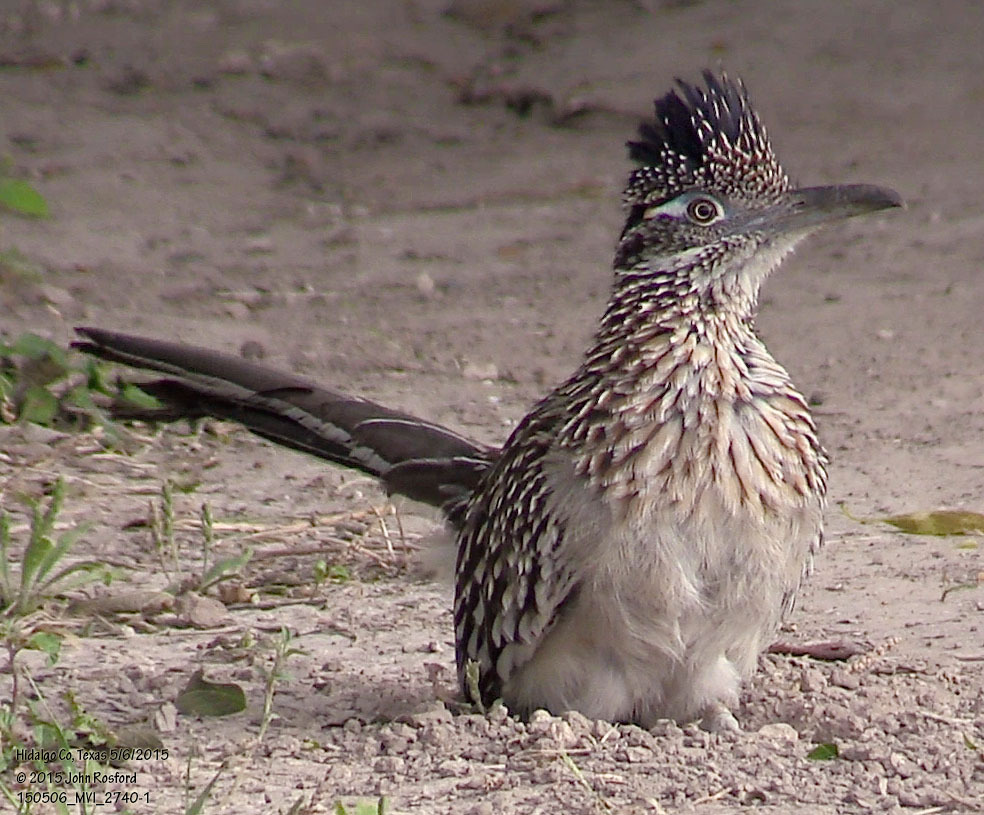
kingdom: Animalia
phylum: Chordata
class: Aves
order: Cuculiformes
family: Cuculidae
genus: Geococcyx
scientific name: Geococcyx californianus
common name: Greater roadrunner
